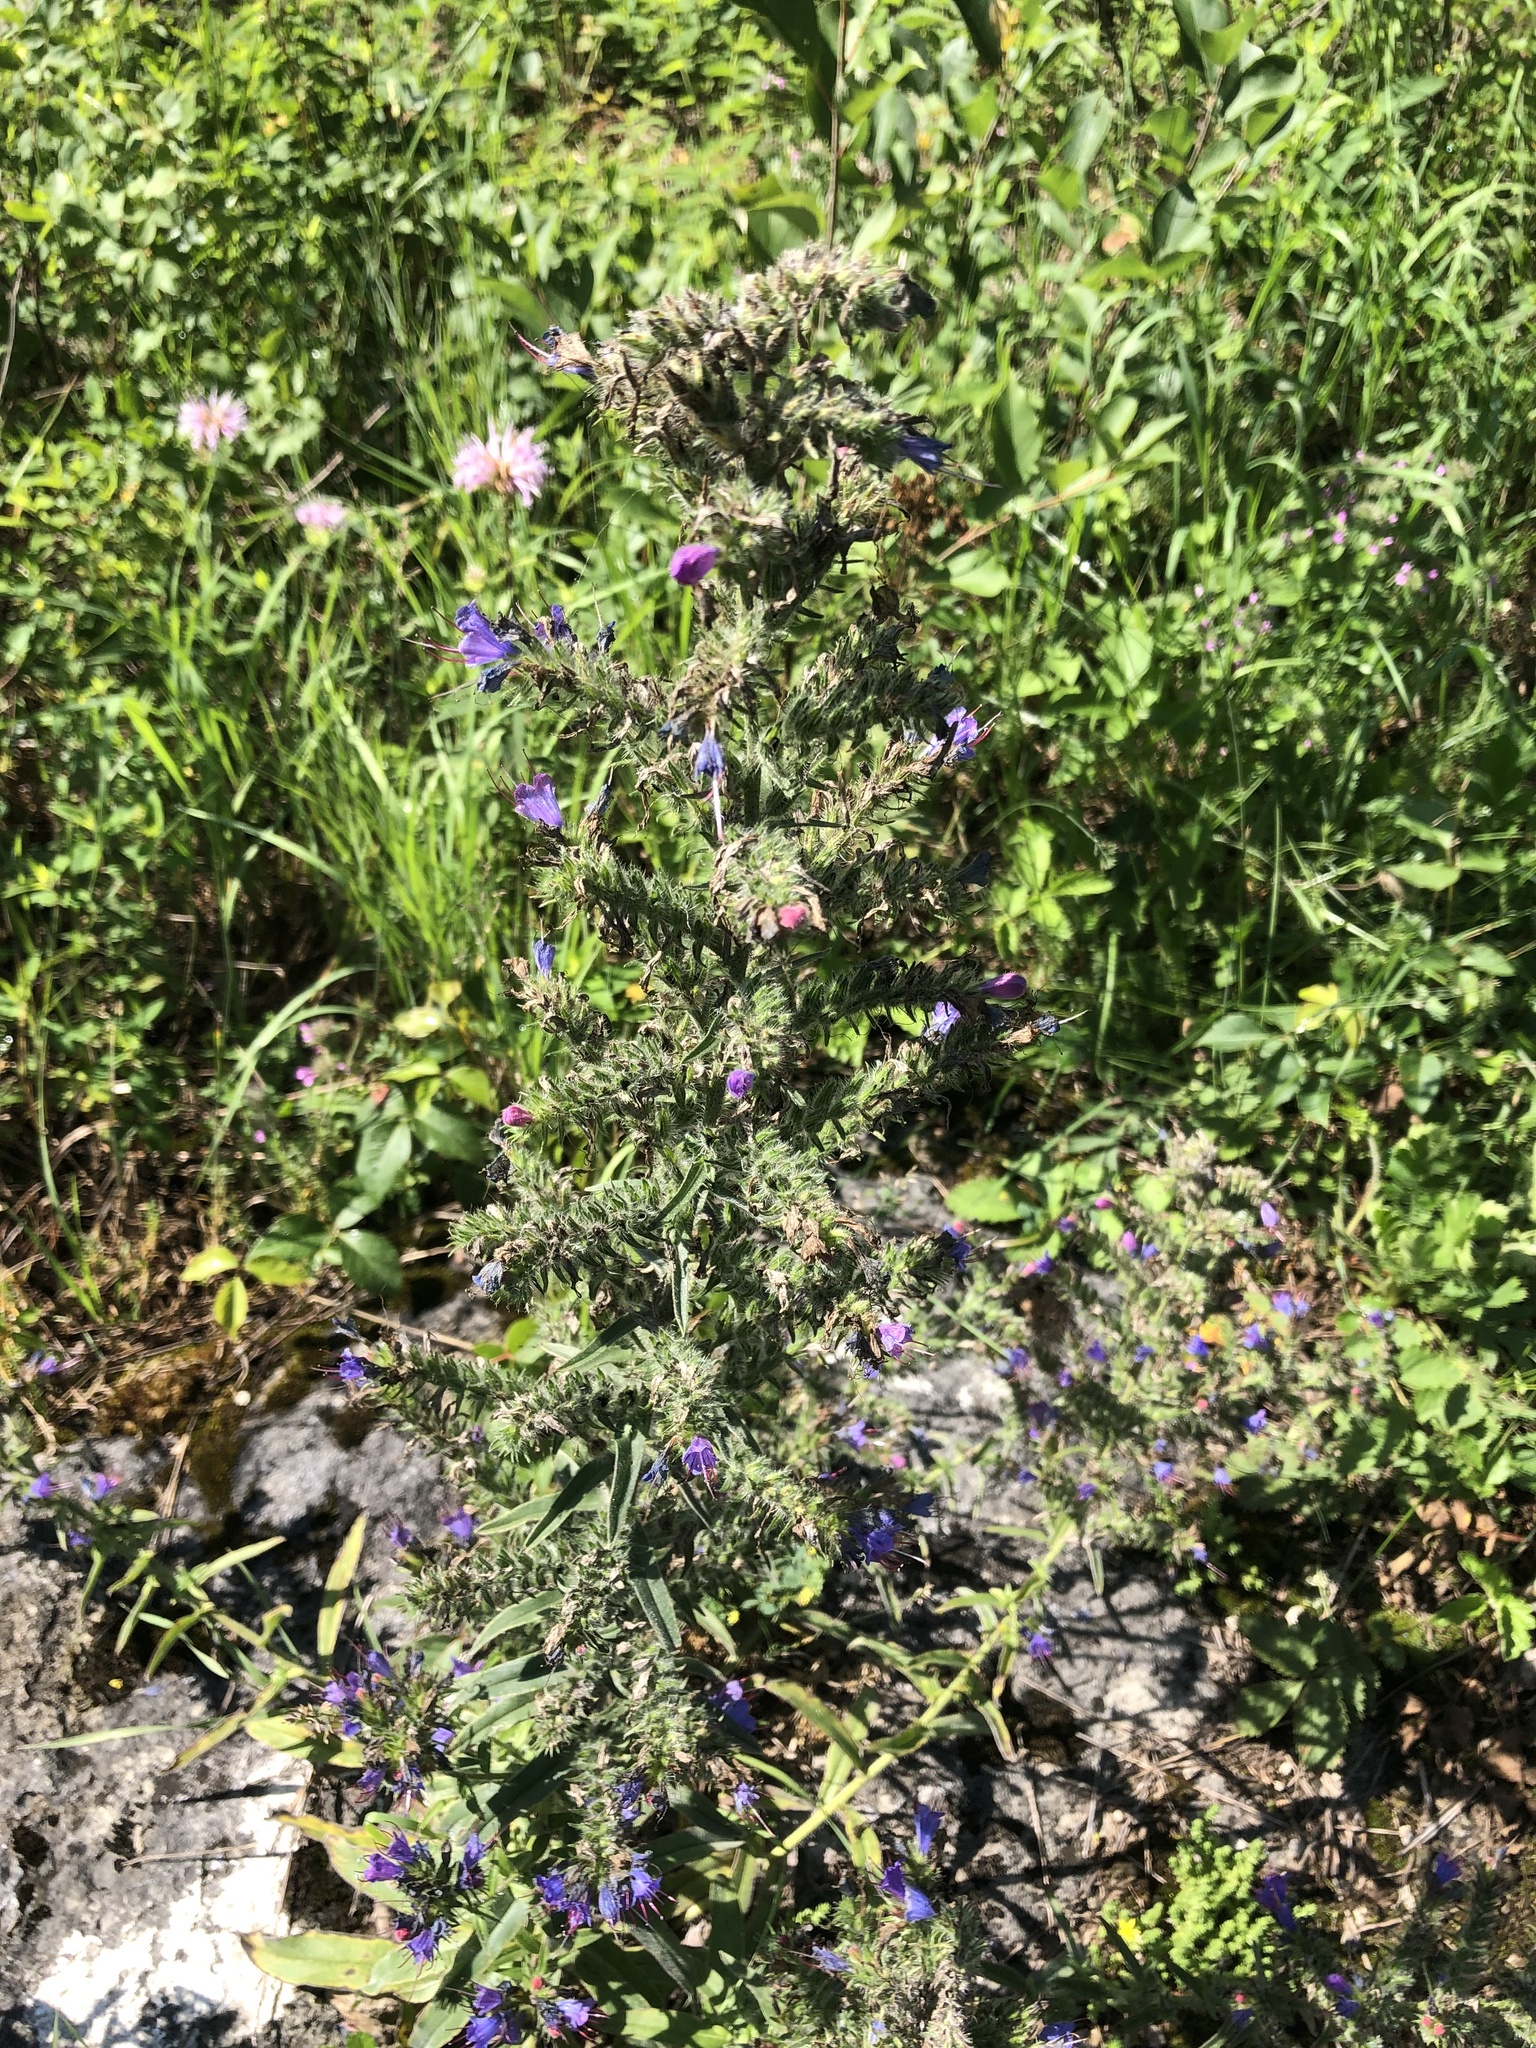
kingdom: Plantae
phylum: Tracheophyta
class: Magnoliopsida
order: Boraginales
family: Boraginaceae
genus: Echium
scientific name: Echium vulgare
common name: Common viper's bugloss
